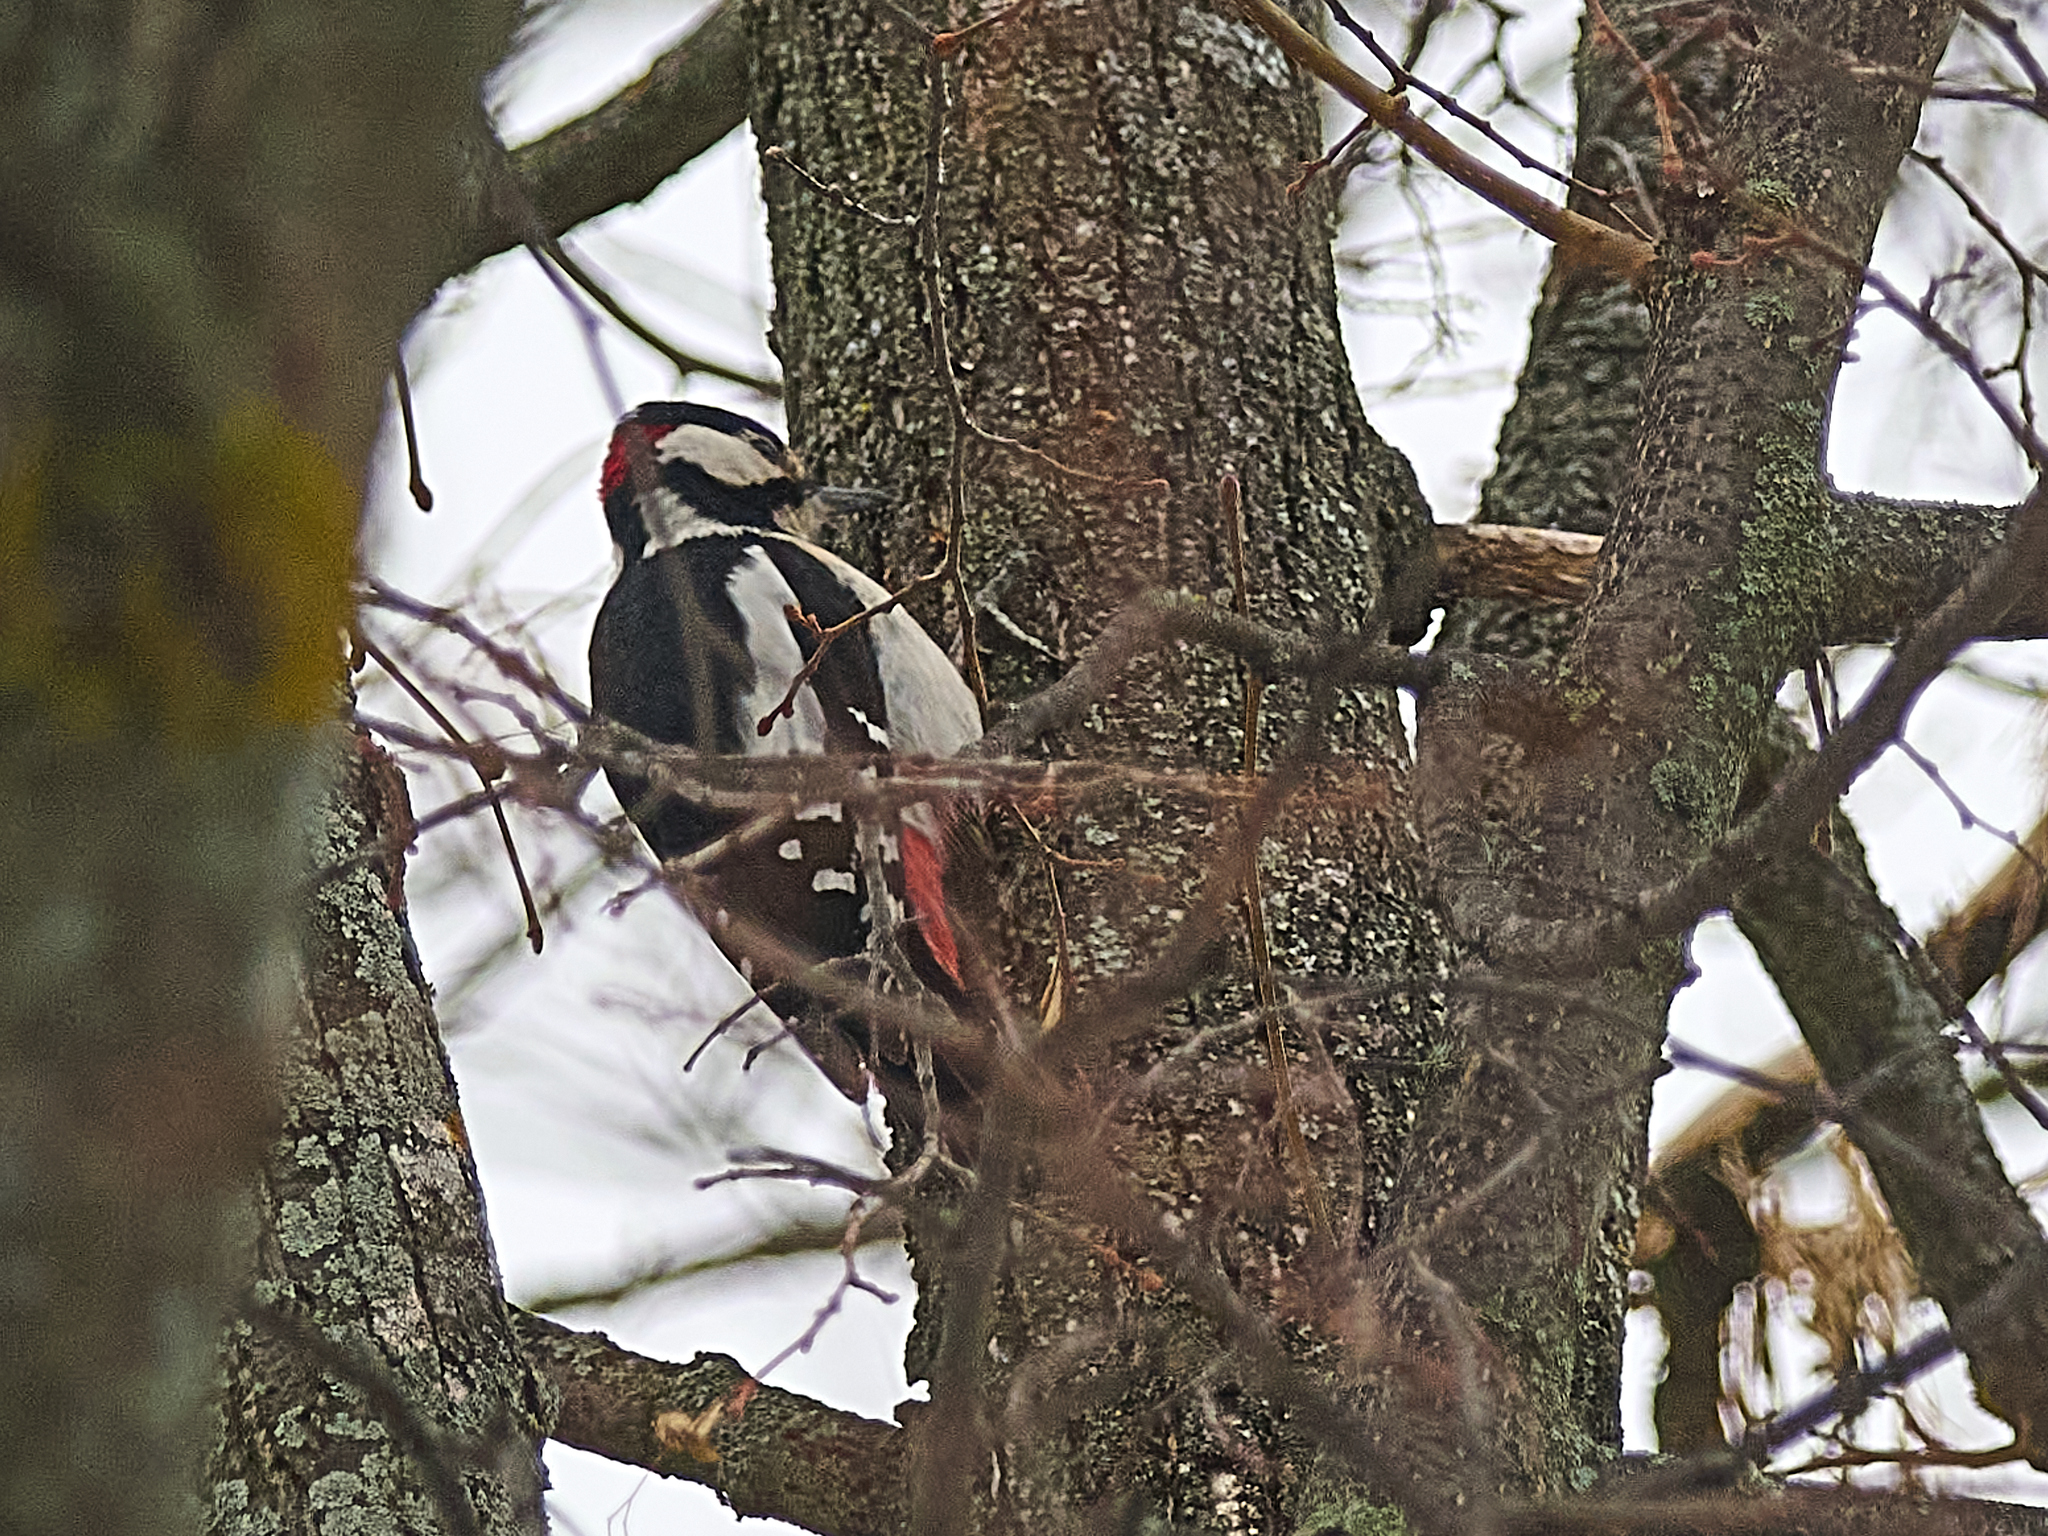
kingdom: Animalia
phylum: Chordata
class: Aves
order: Piciformes
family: Picidae
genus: Dendrocopos
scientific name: Dendrocopos major
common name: Great spotted woodpecker
